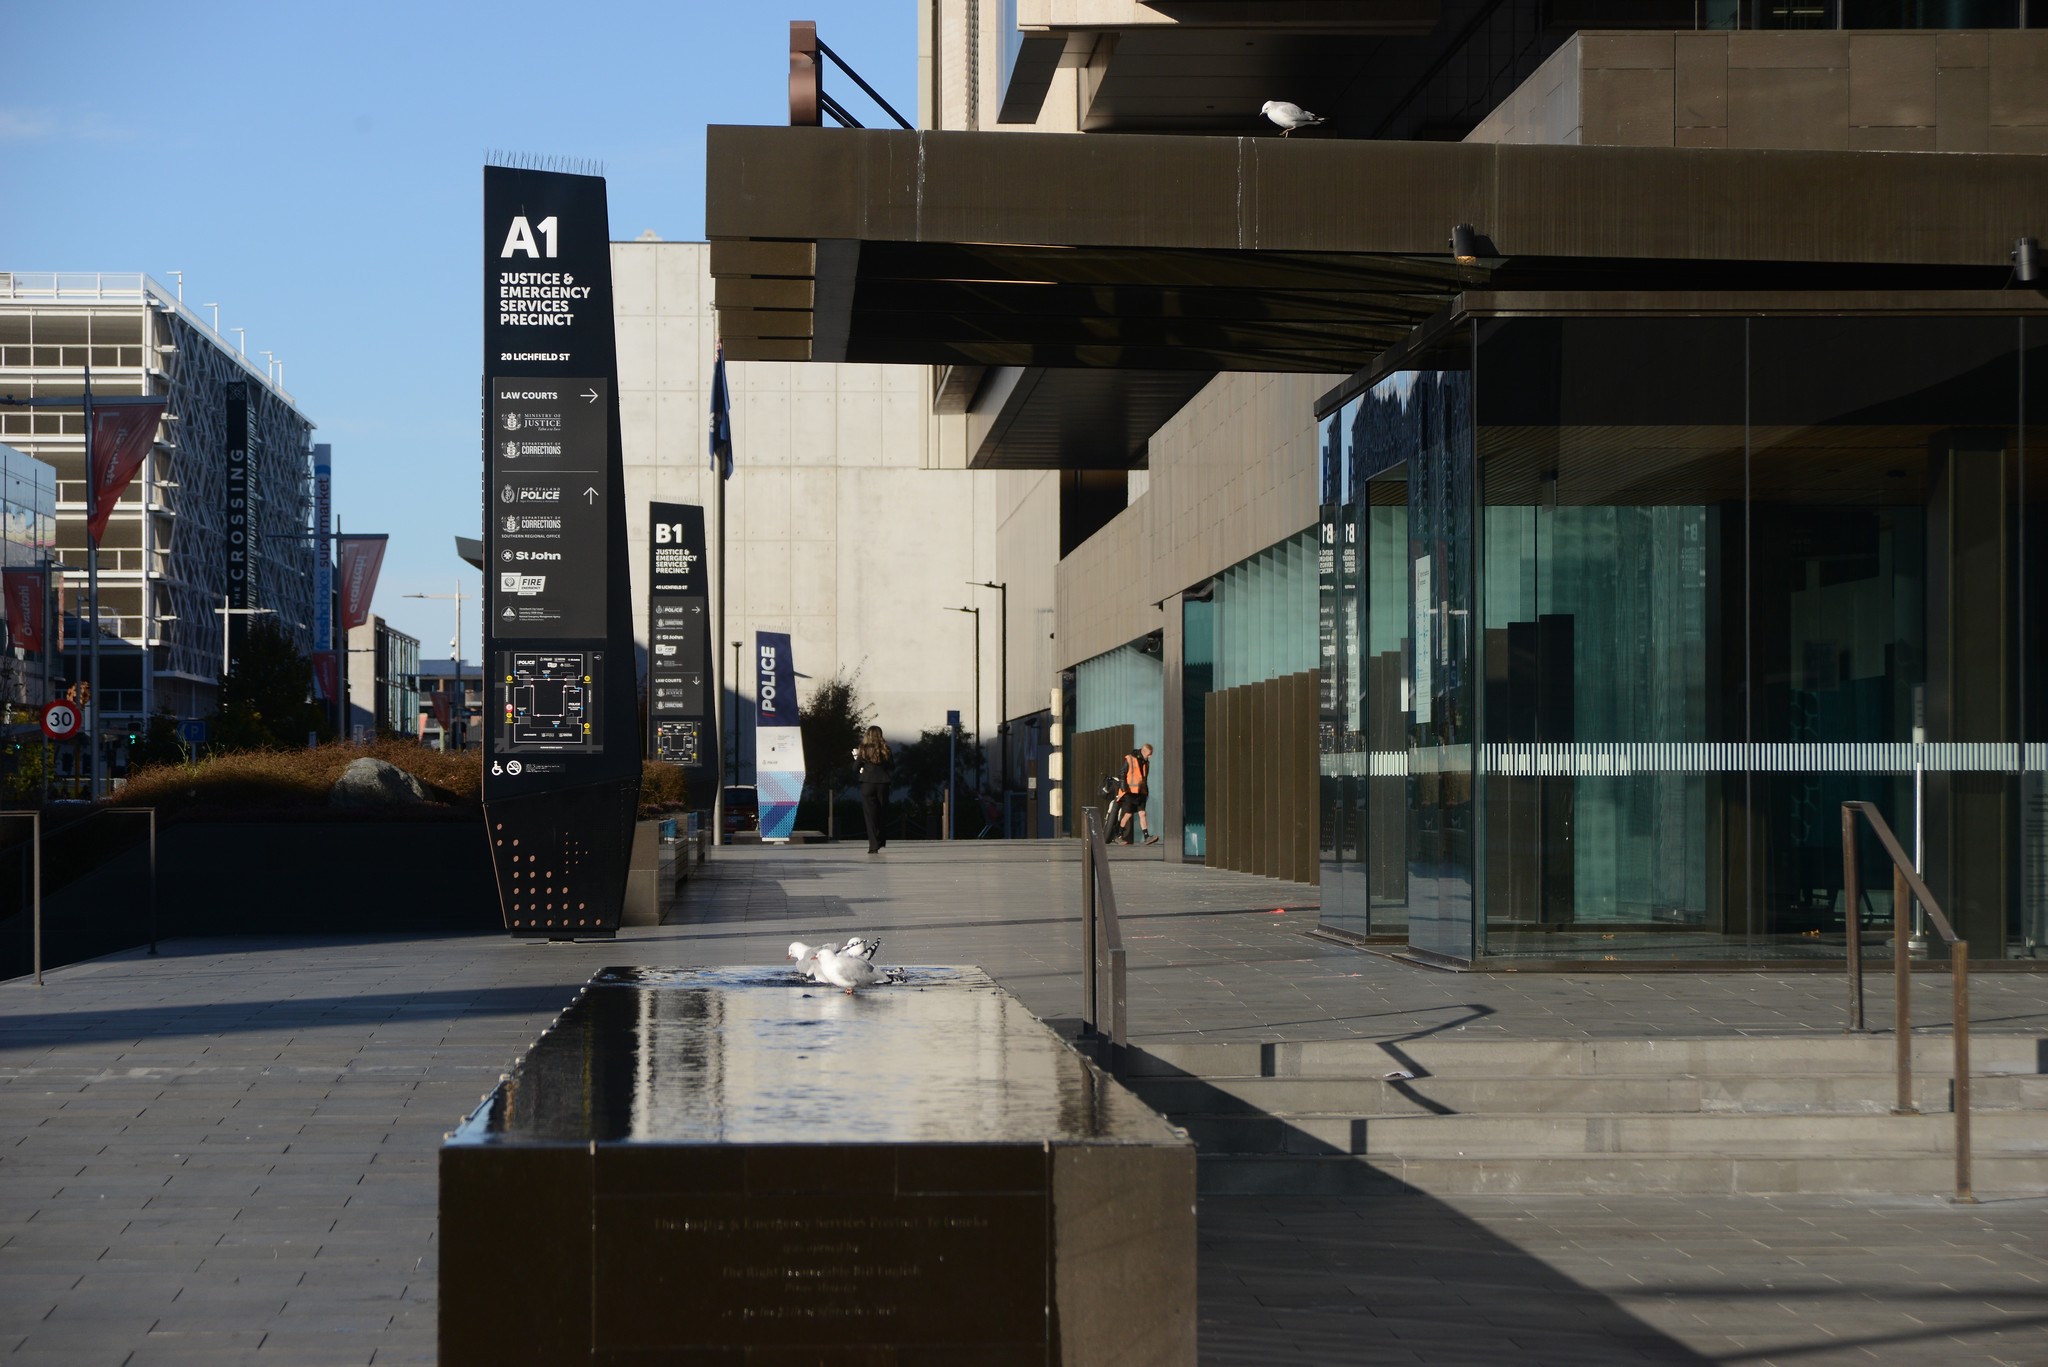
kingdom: Animalia
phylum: Chordata
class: Aves
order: Charadriiformes
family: Laridae
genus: Chroicocephalus
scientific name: Chroicocephalus novaehollandiae
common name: Silver gull
